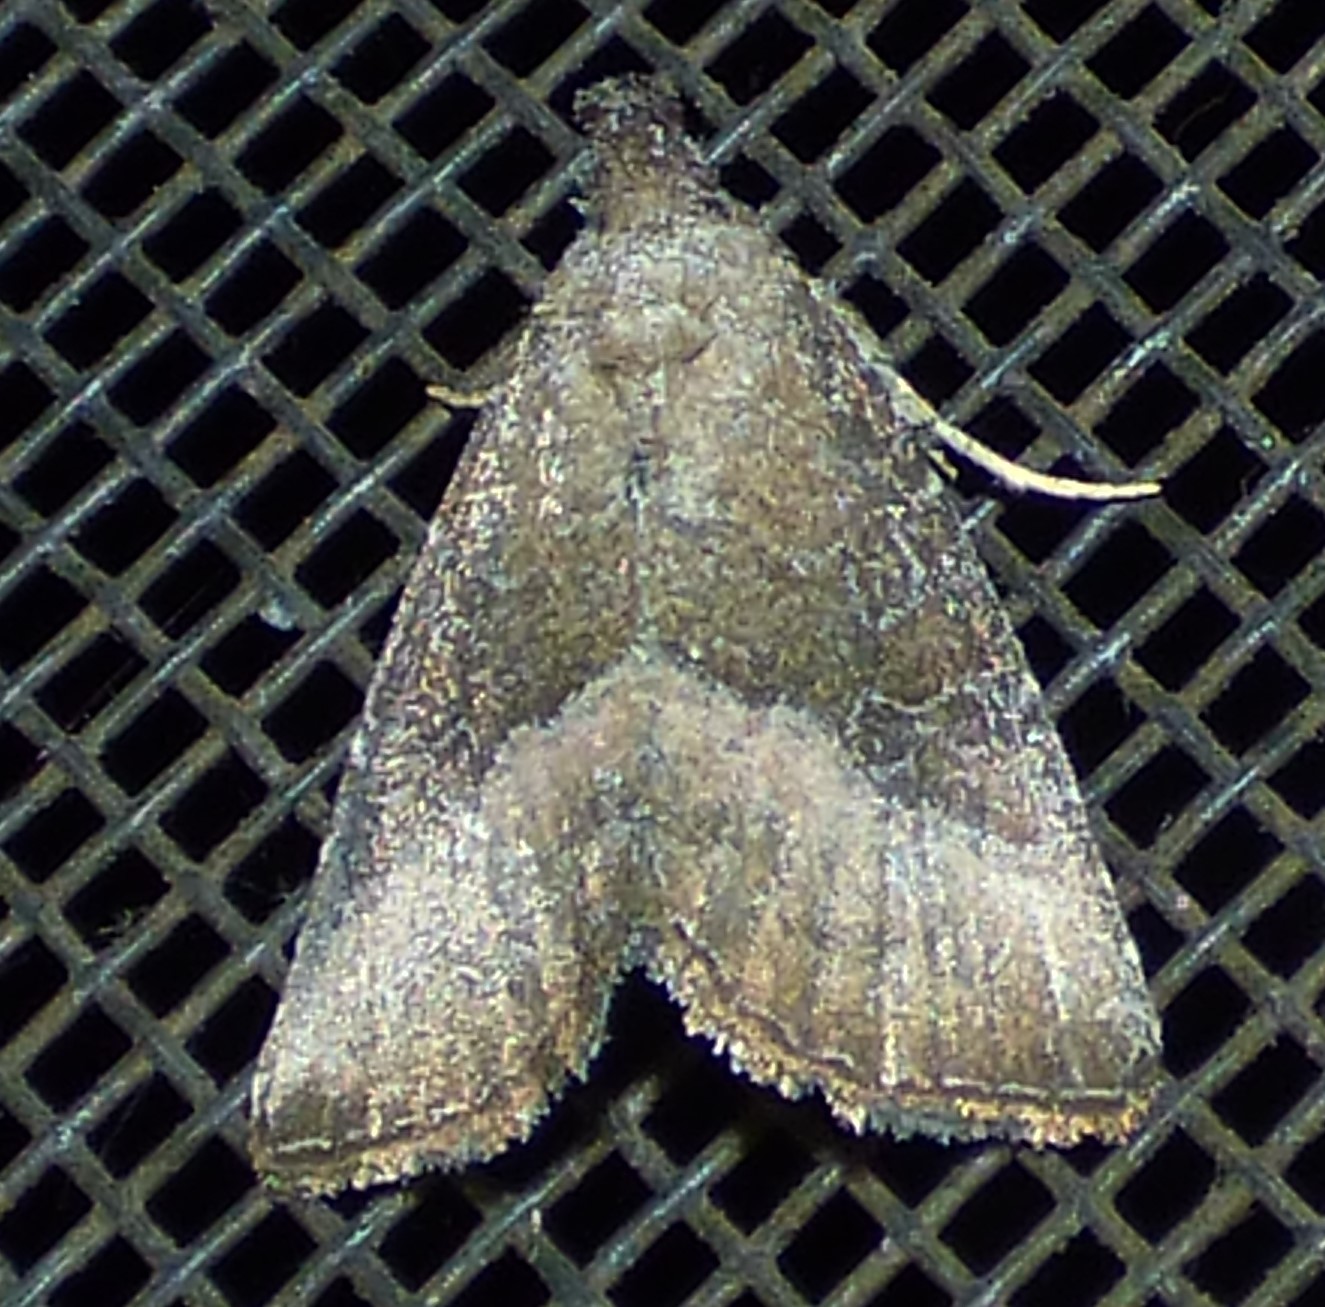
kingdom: Animalia
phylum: Arthropoda
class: Insecta
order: Lepidoptera
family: Noctuidae
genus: Ogdoconta
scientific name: Ogdoconta cinereola
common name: Common pinkband
